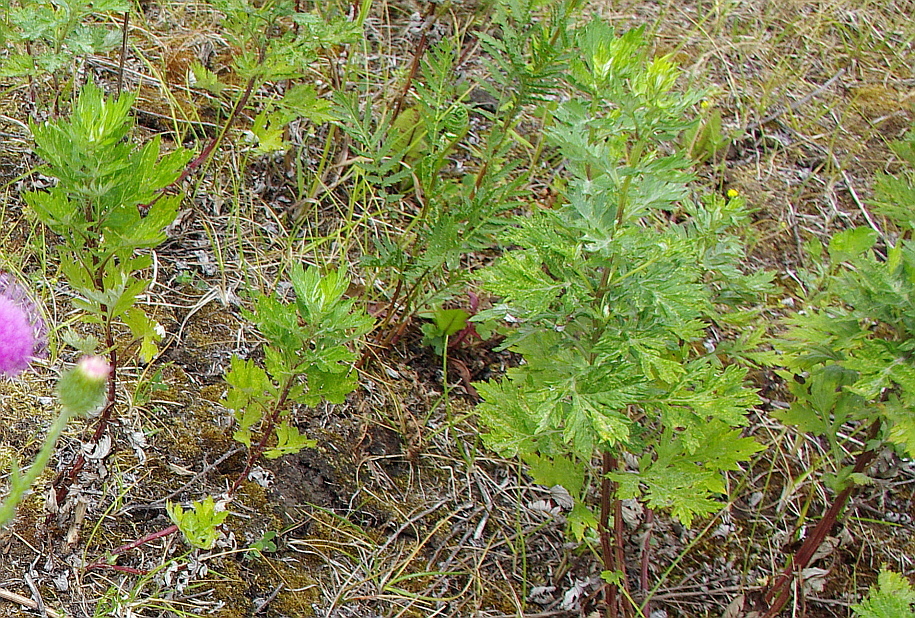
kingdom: Plantae
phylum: Tracheophyta
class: Magnoliopsida
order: Asterales
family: Asteraceae
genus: Artemisia
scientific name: Artemisia vulgaris
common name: Mugwort
